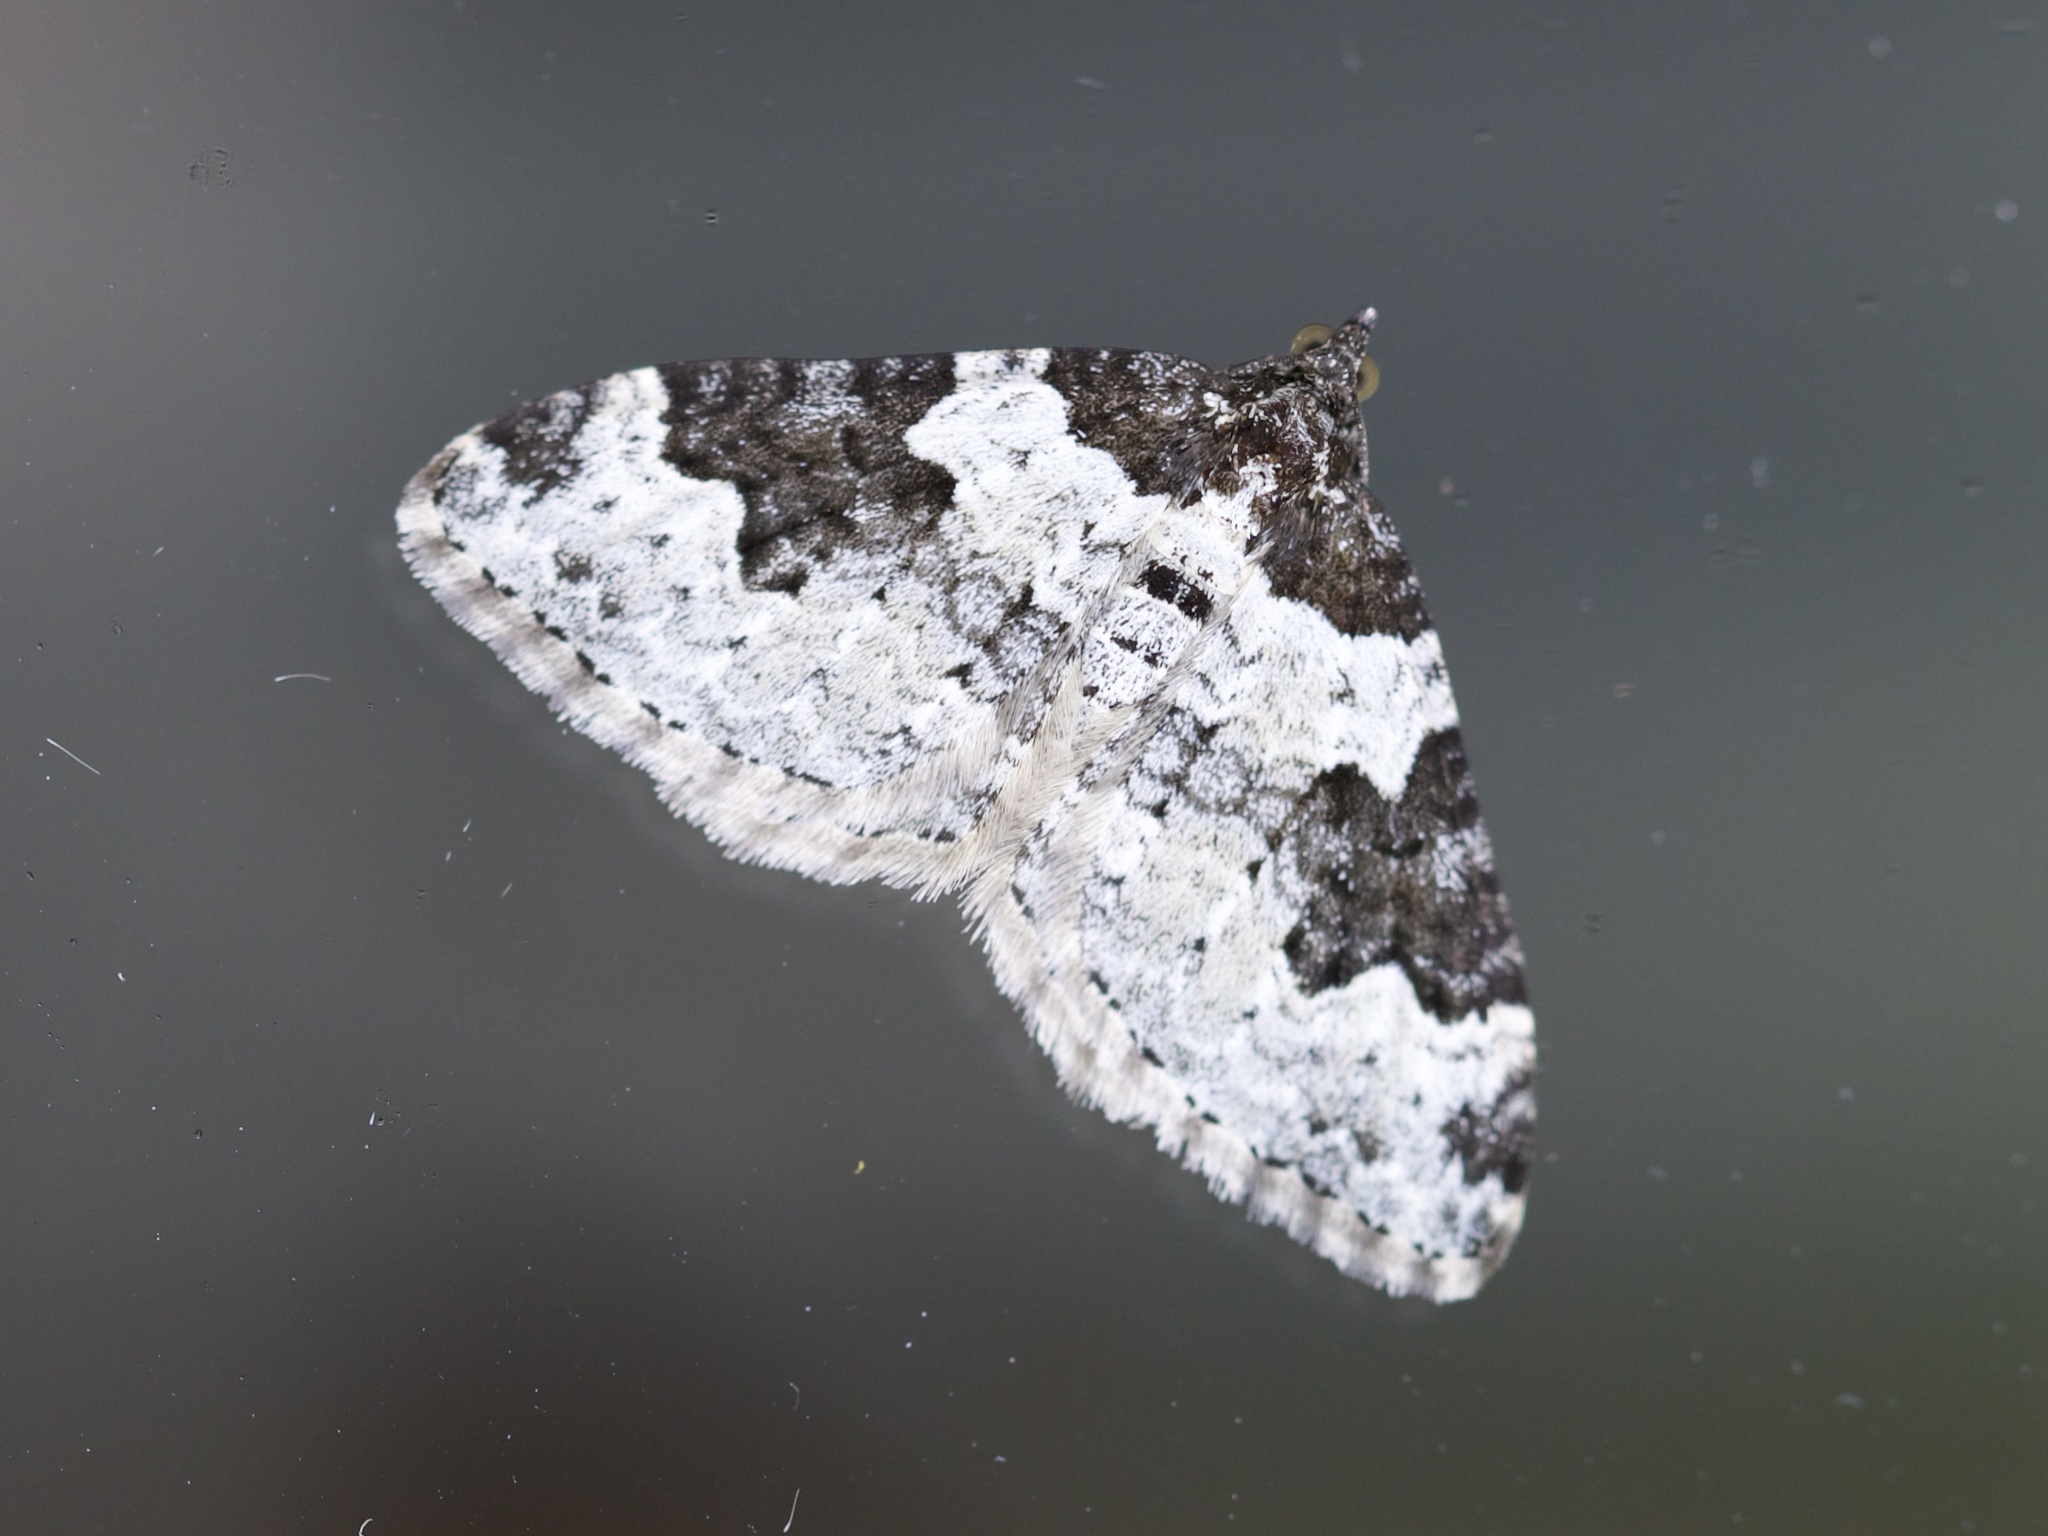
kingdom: Animalia
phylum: Arthropoda
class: Insecta
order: Lepidoptera
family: Geometridae
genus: Xanthorhoe
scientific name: Xanthorhoe fluctuata
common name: Garden carpet
